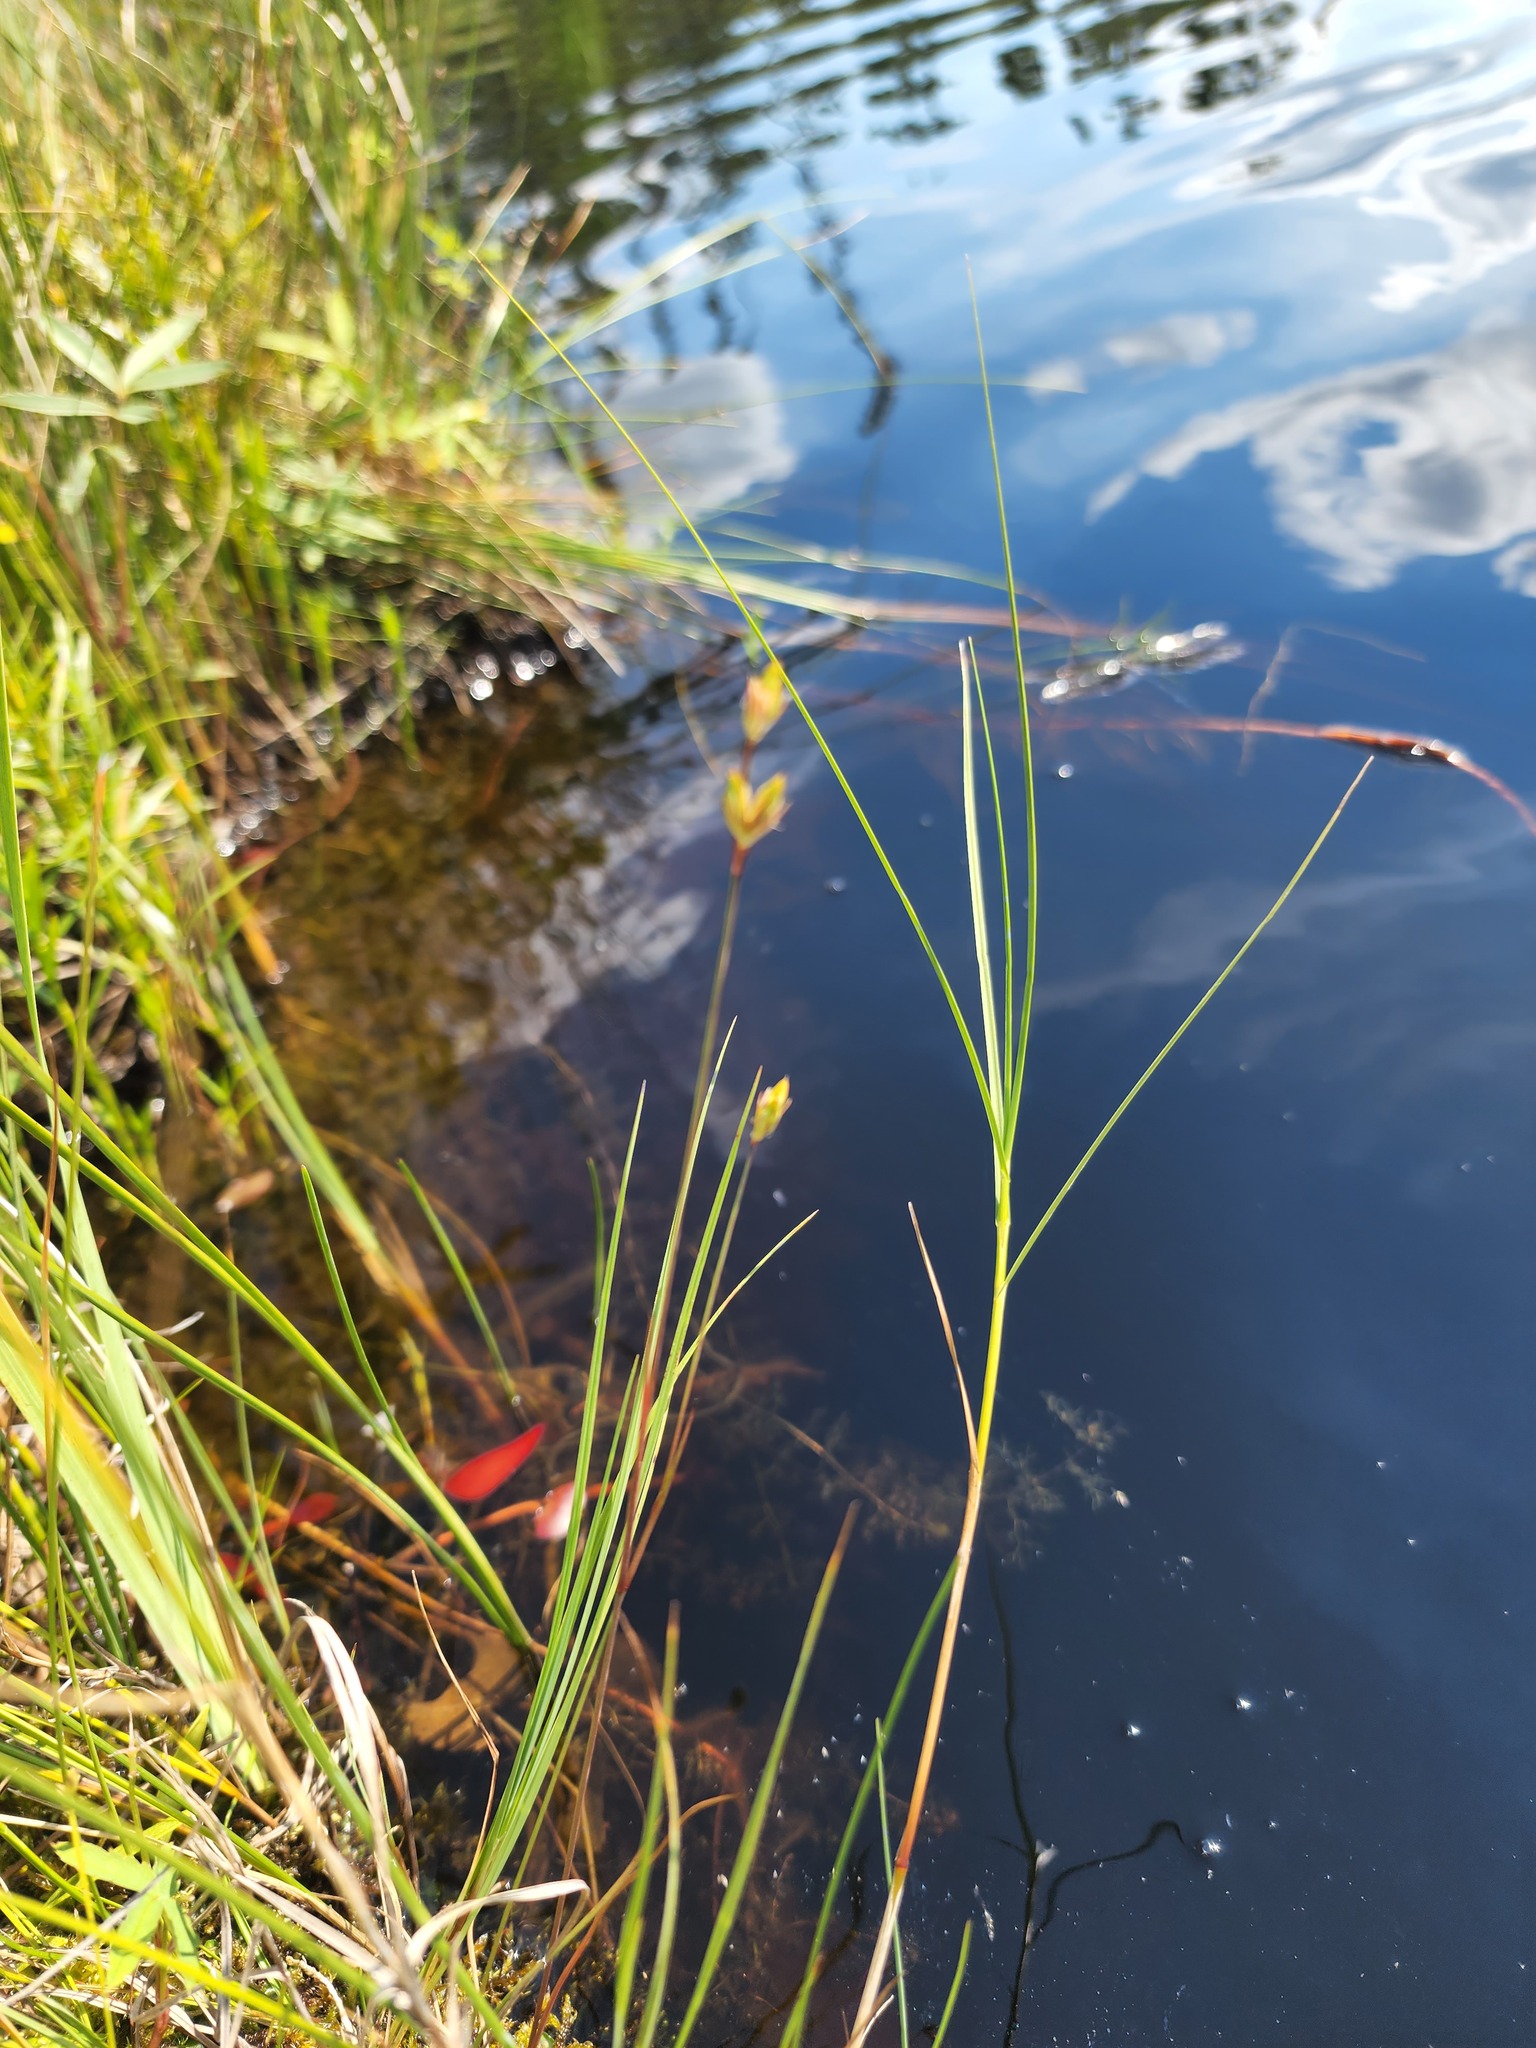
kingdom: Plantae
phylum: Tracheophyta
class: Liliopsida
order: Poales
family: Juncaceae
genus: Juncus
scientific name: Juncus stygius
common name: Bog rush
